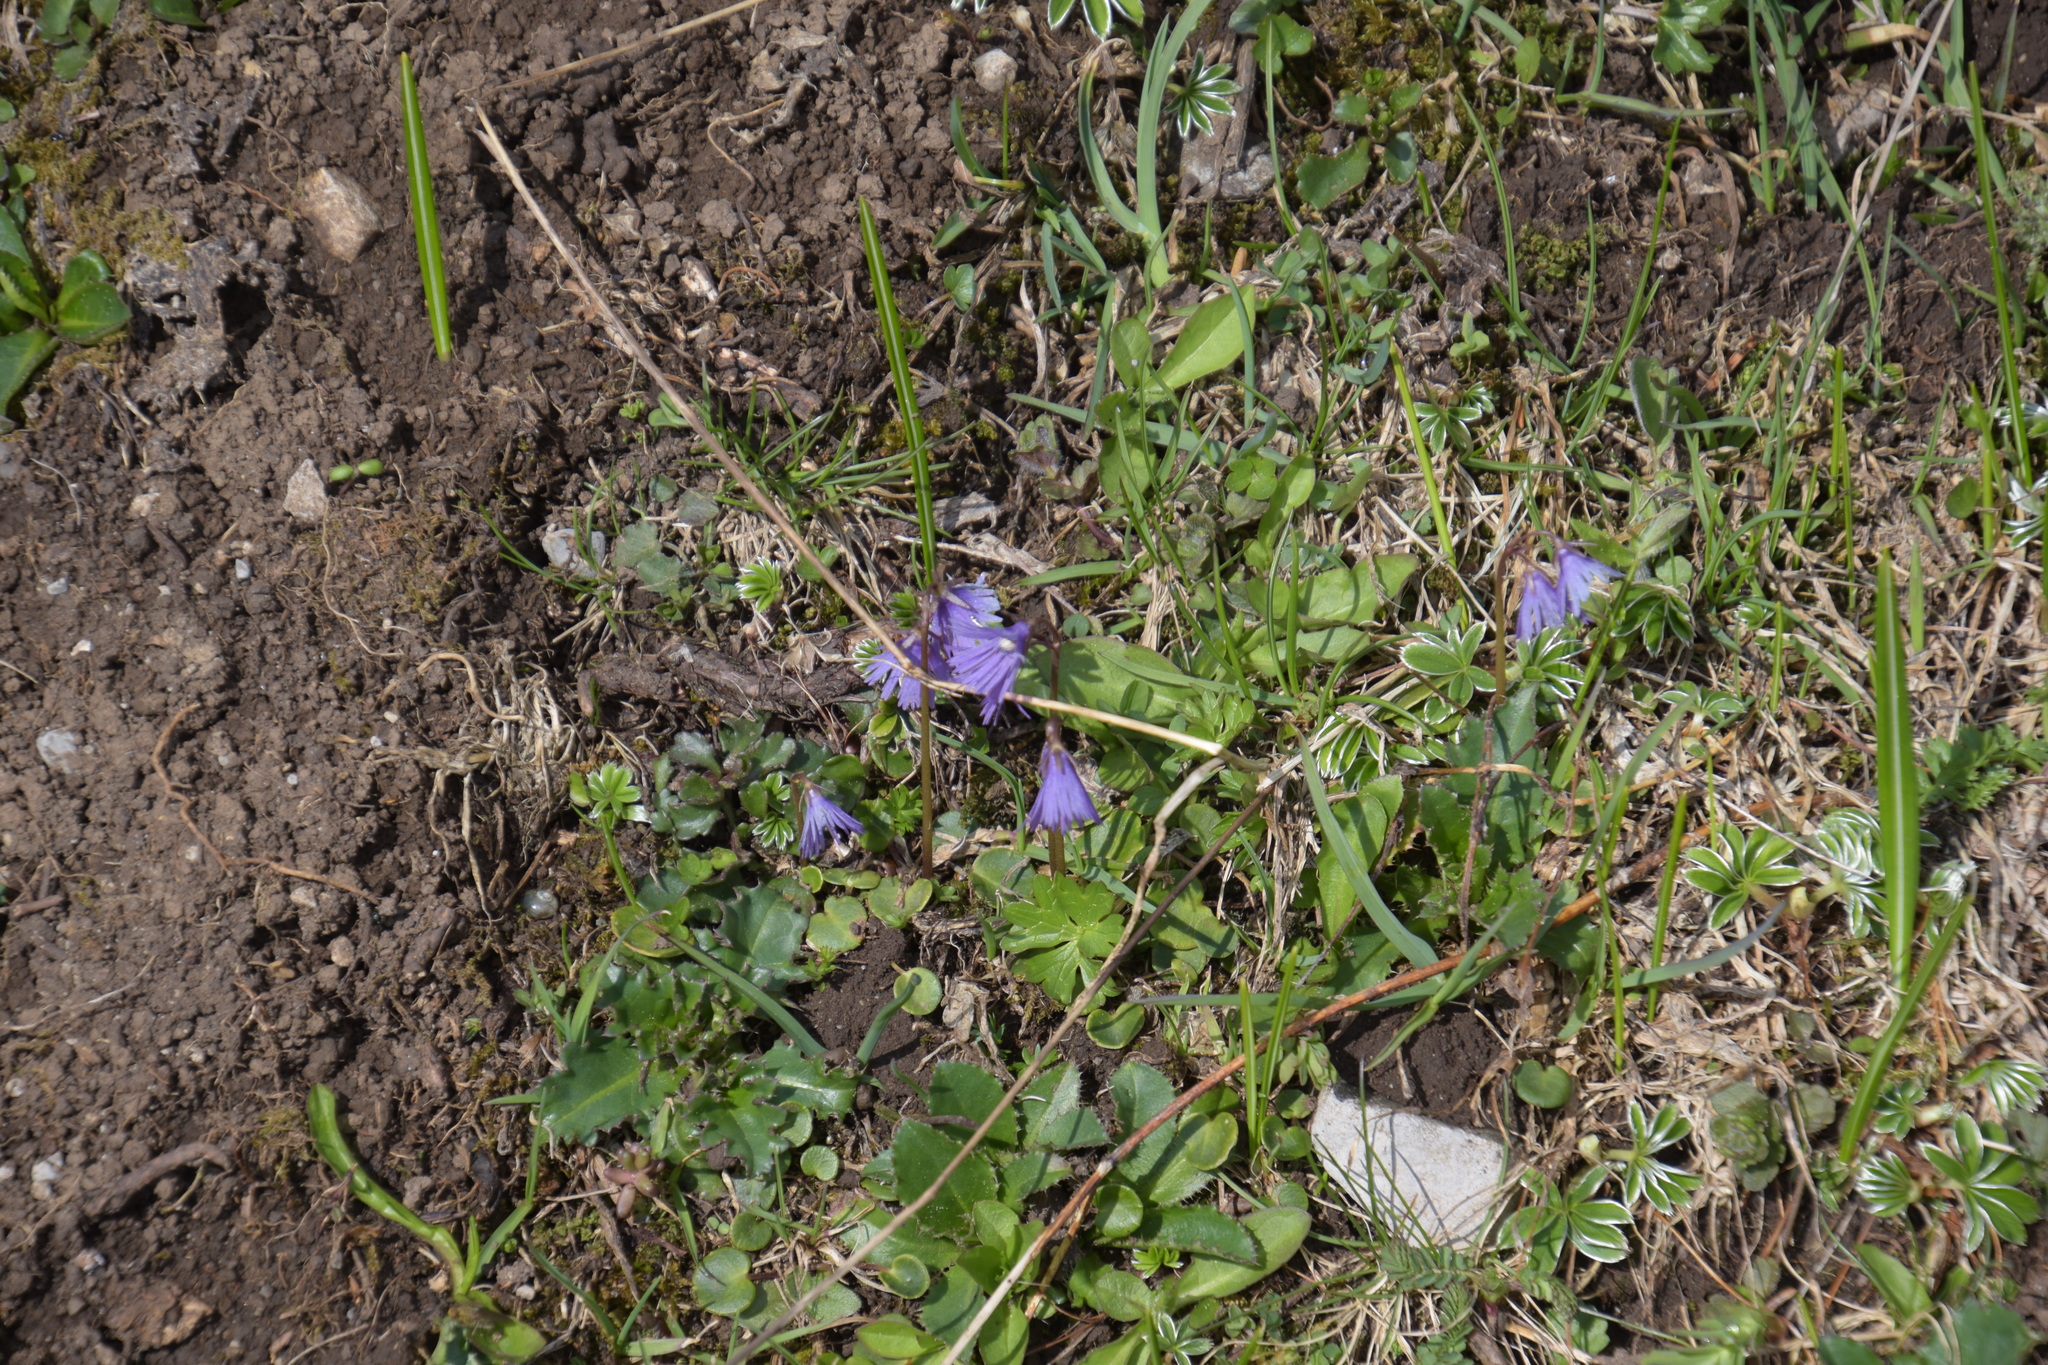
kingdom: Plantae
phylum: Tracheophyta
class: Magnoliopsida
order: Ericales
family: Primulaceae
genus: Soldanella
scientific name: Soldanella alpina
